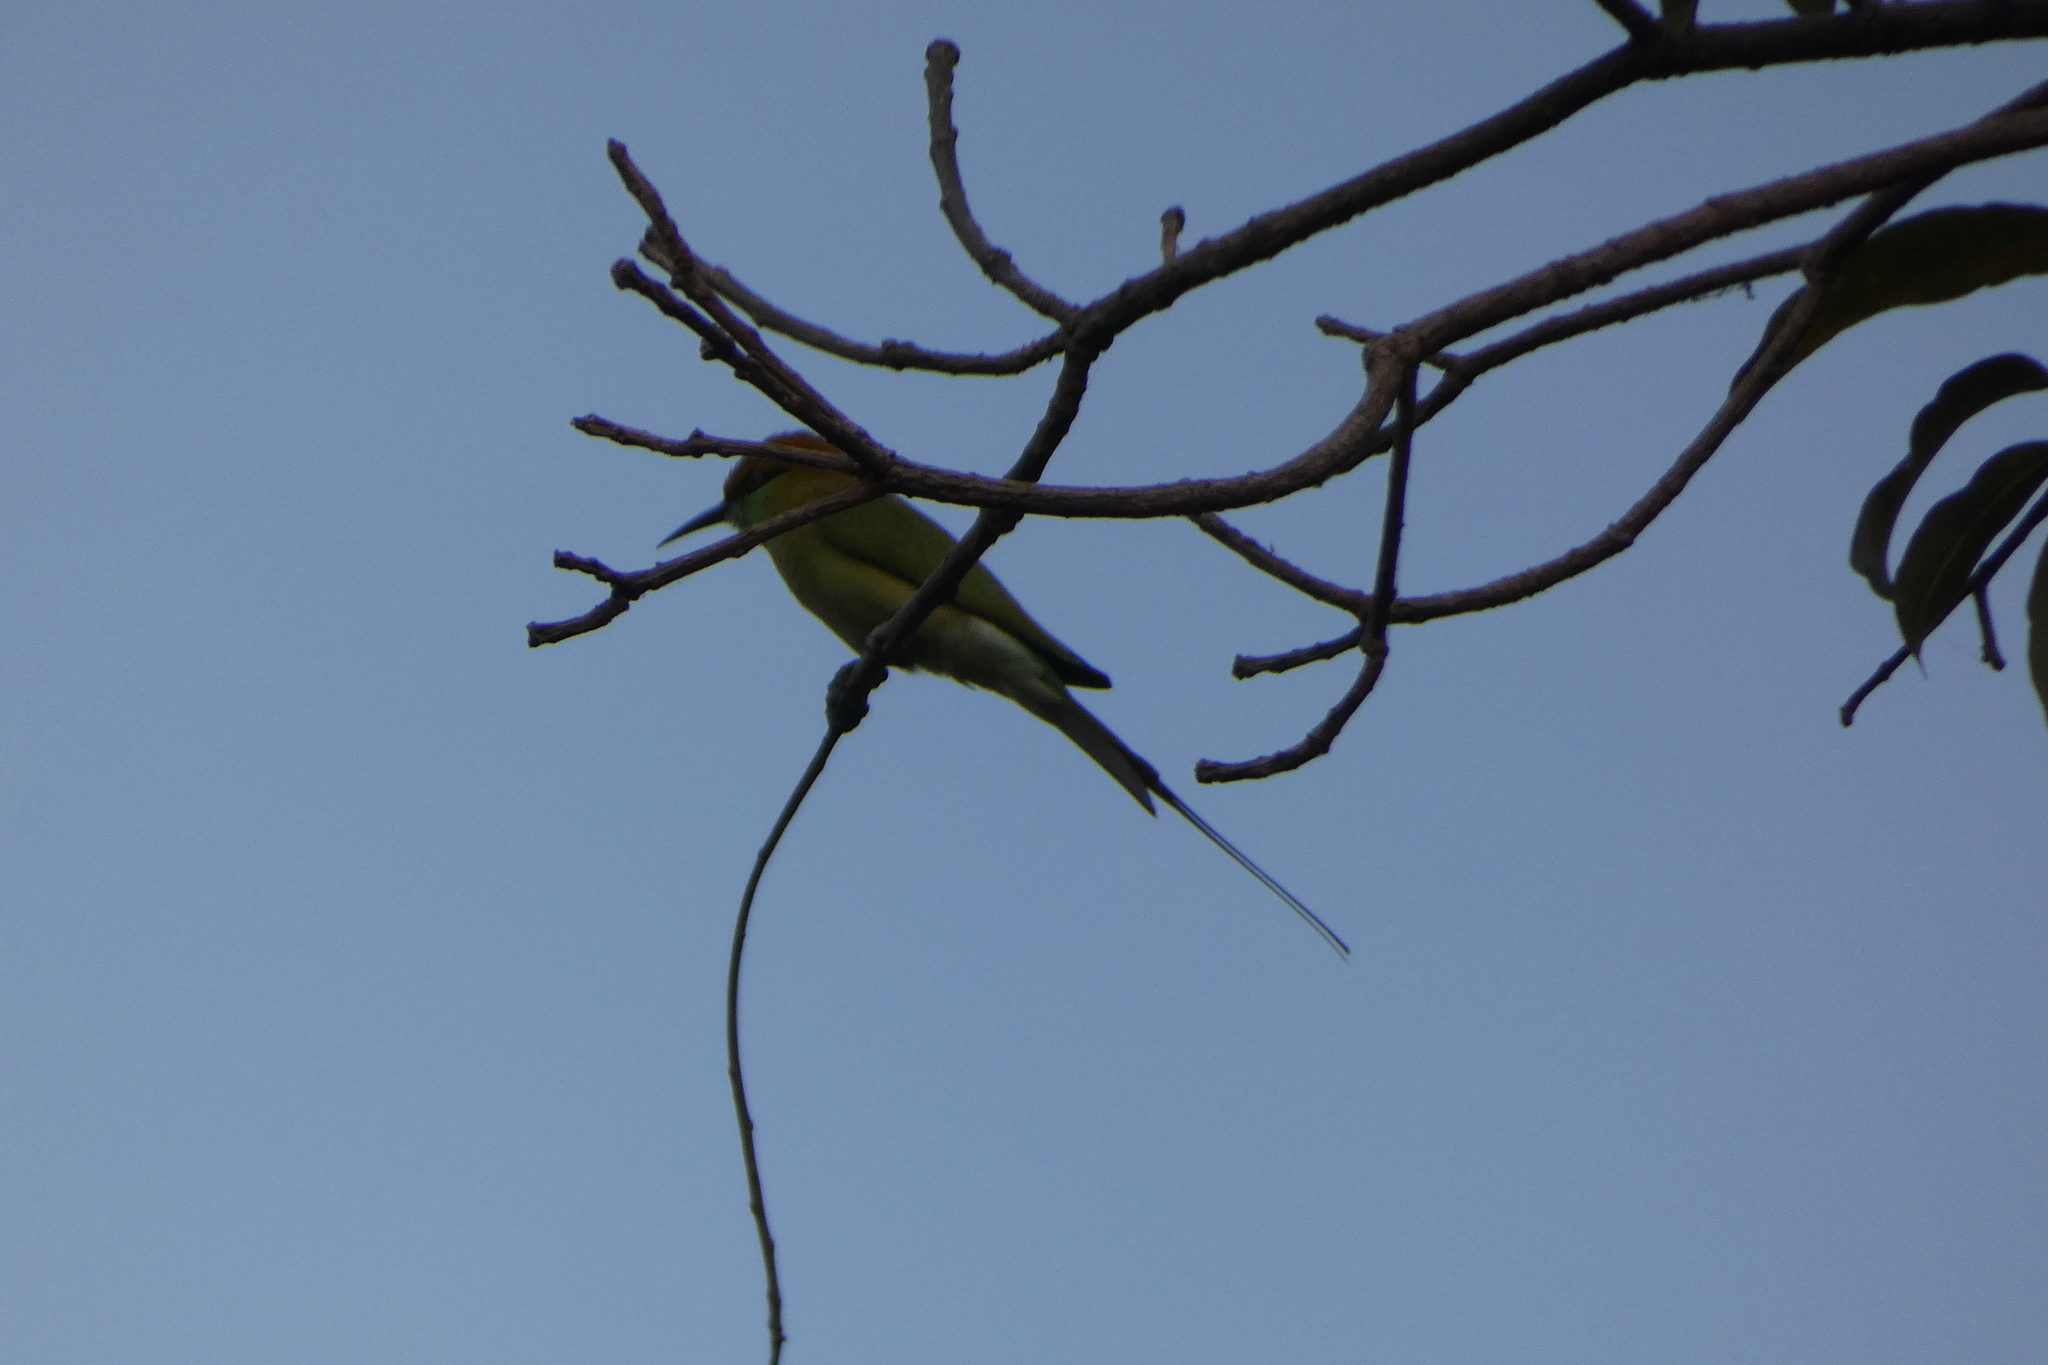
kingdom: Animalia
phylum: Chordata
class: Aves
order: Coraciiformes
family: Meropidae
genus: Merops
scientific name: Merops orientalis
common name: Green bee-eater
